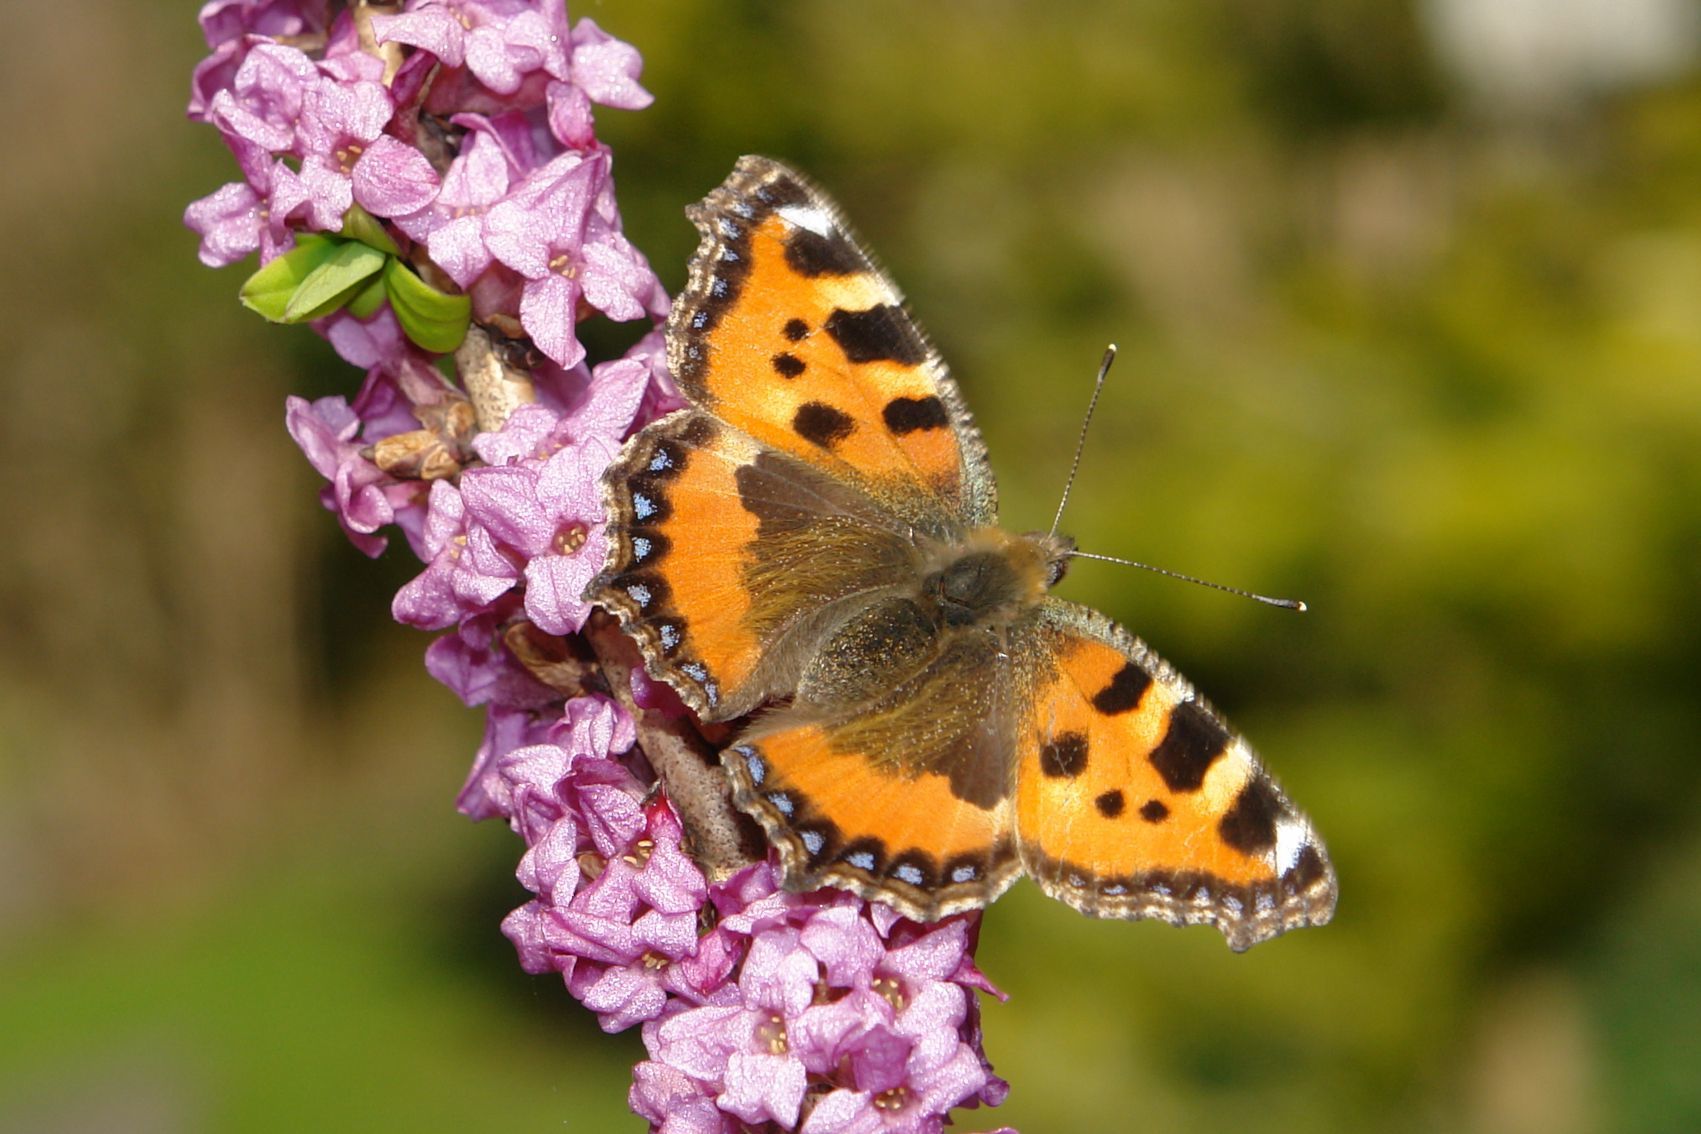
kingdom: Animalia
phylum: Arthropoda
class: Insecta
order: Lepidoptera
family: Nymphalidae
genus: Aglais
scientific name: Aglais urticae
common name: Small tortoiseshell
